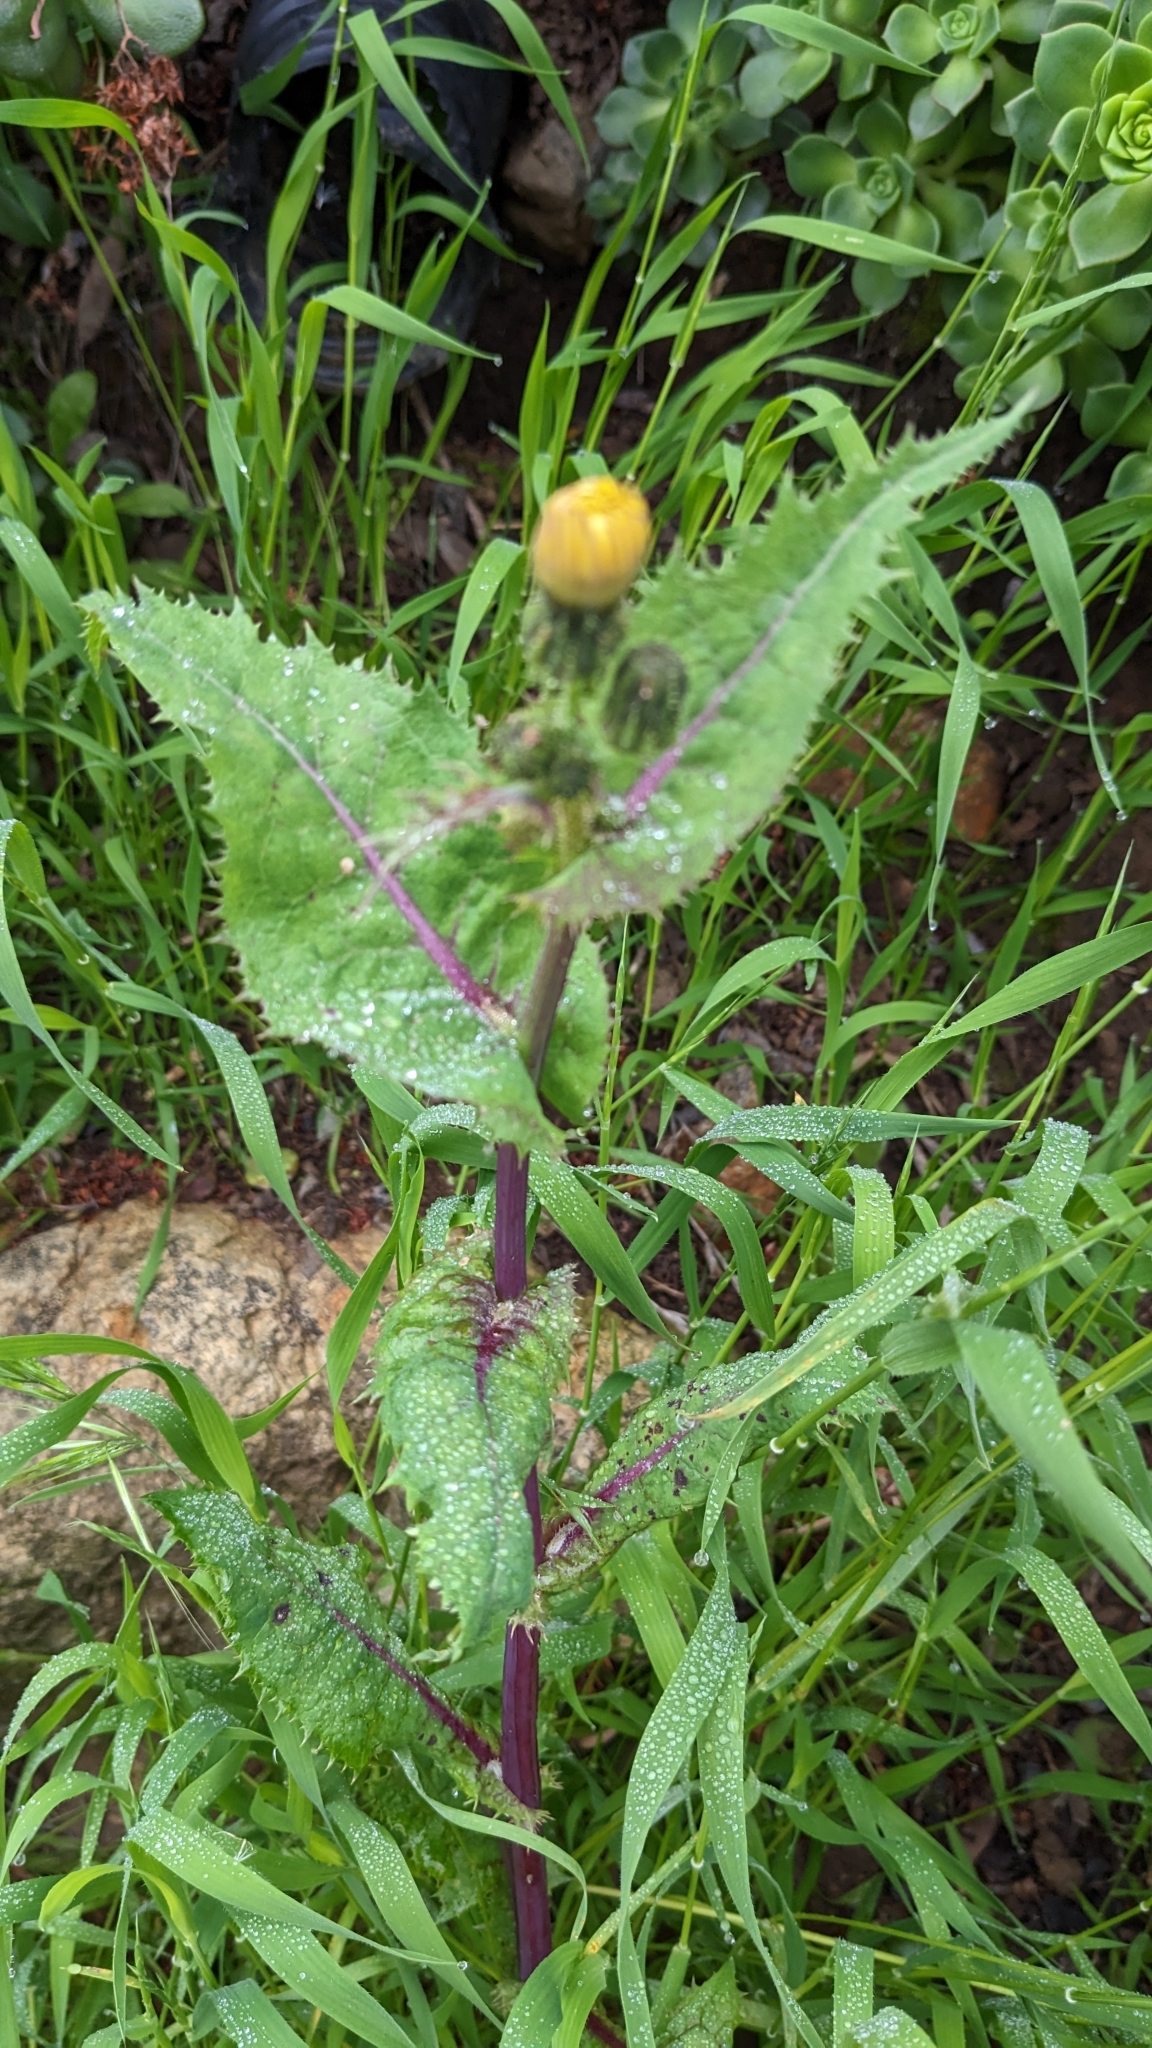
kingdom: Plantae
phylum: Tracheophyta
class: Magnoliopsida
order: Asterales
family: Asteraceae
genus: Sonchus
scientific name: Sonchus oleraceus
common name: Common sowthistle
